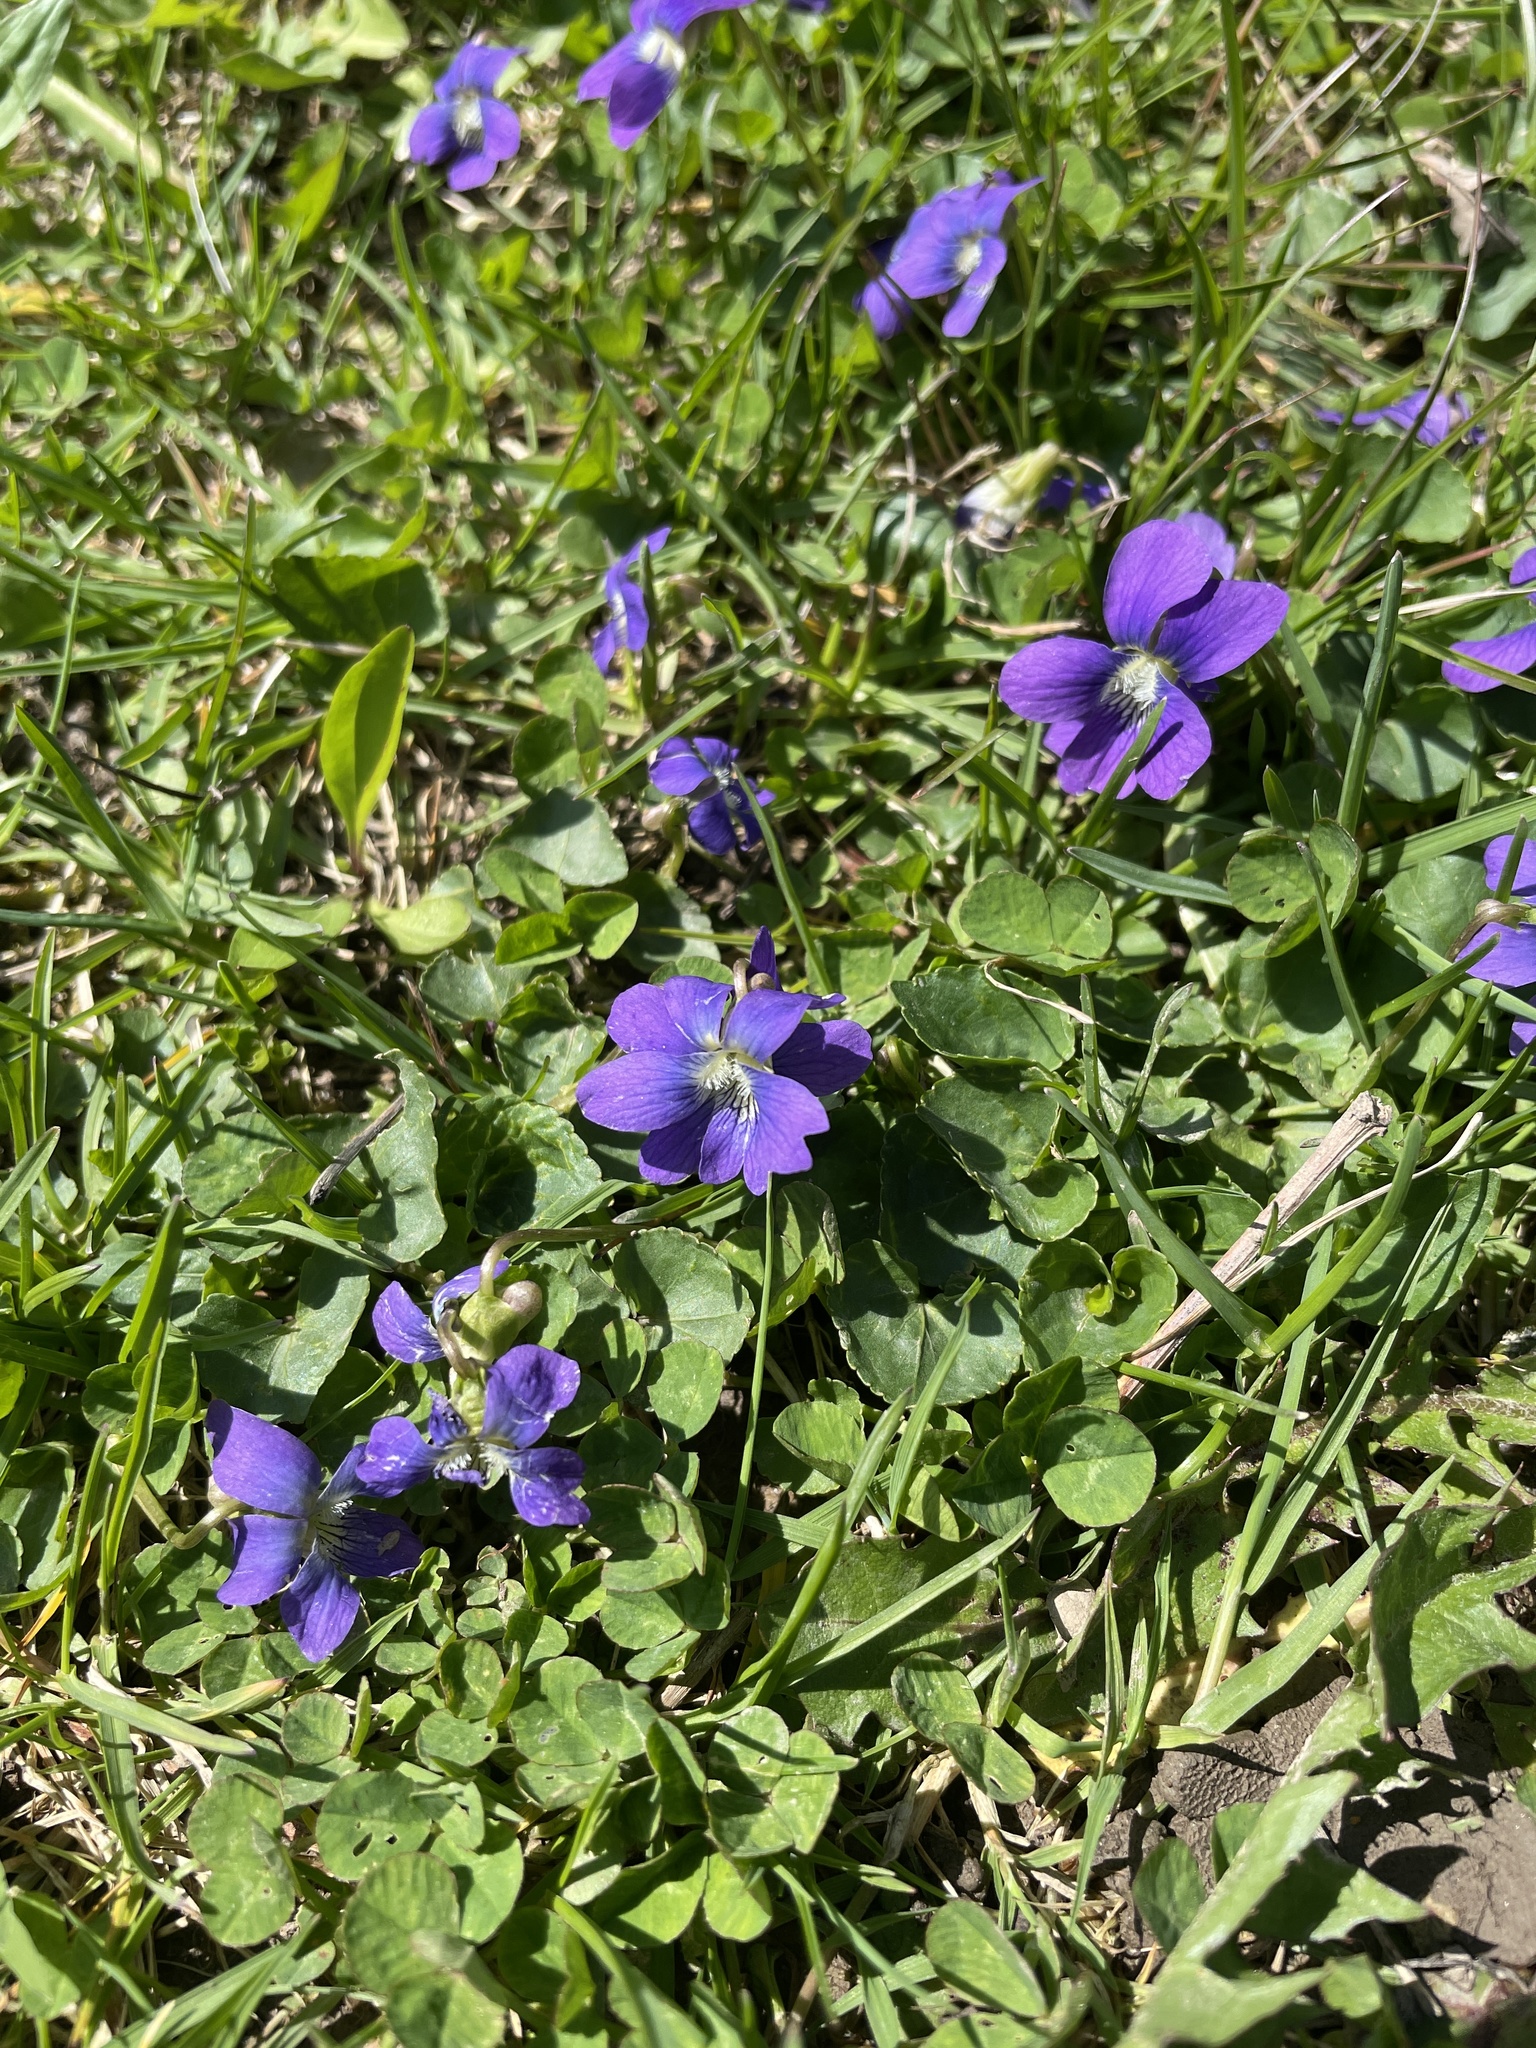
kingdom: Plantae
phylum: Tracheophyta
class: Magnoliopsida
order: Malpighiales
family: Violaceae
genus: Viola
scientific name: Viola sororia
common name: Dooryard violet
